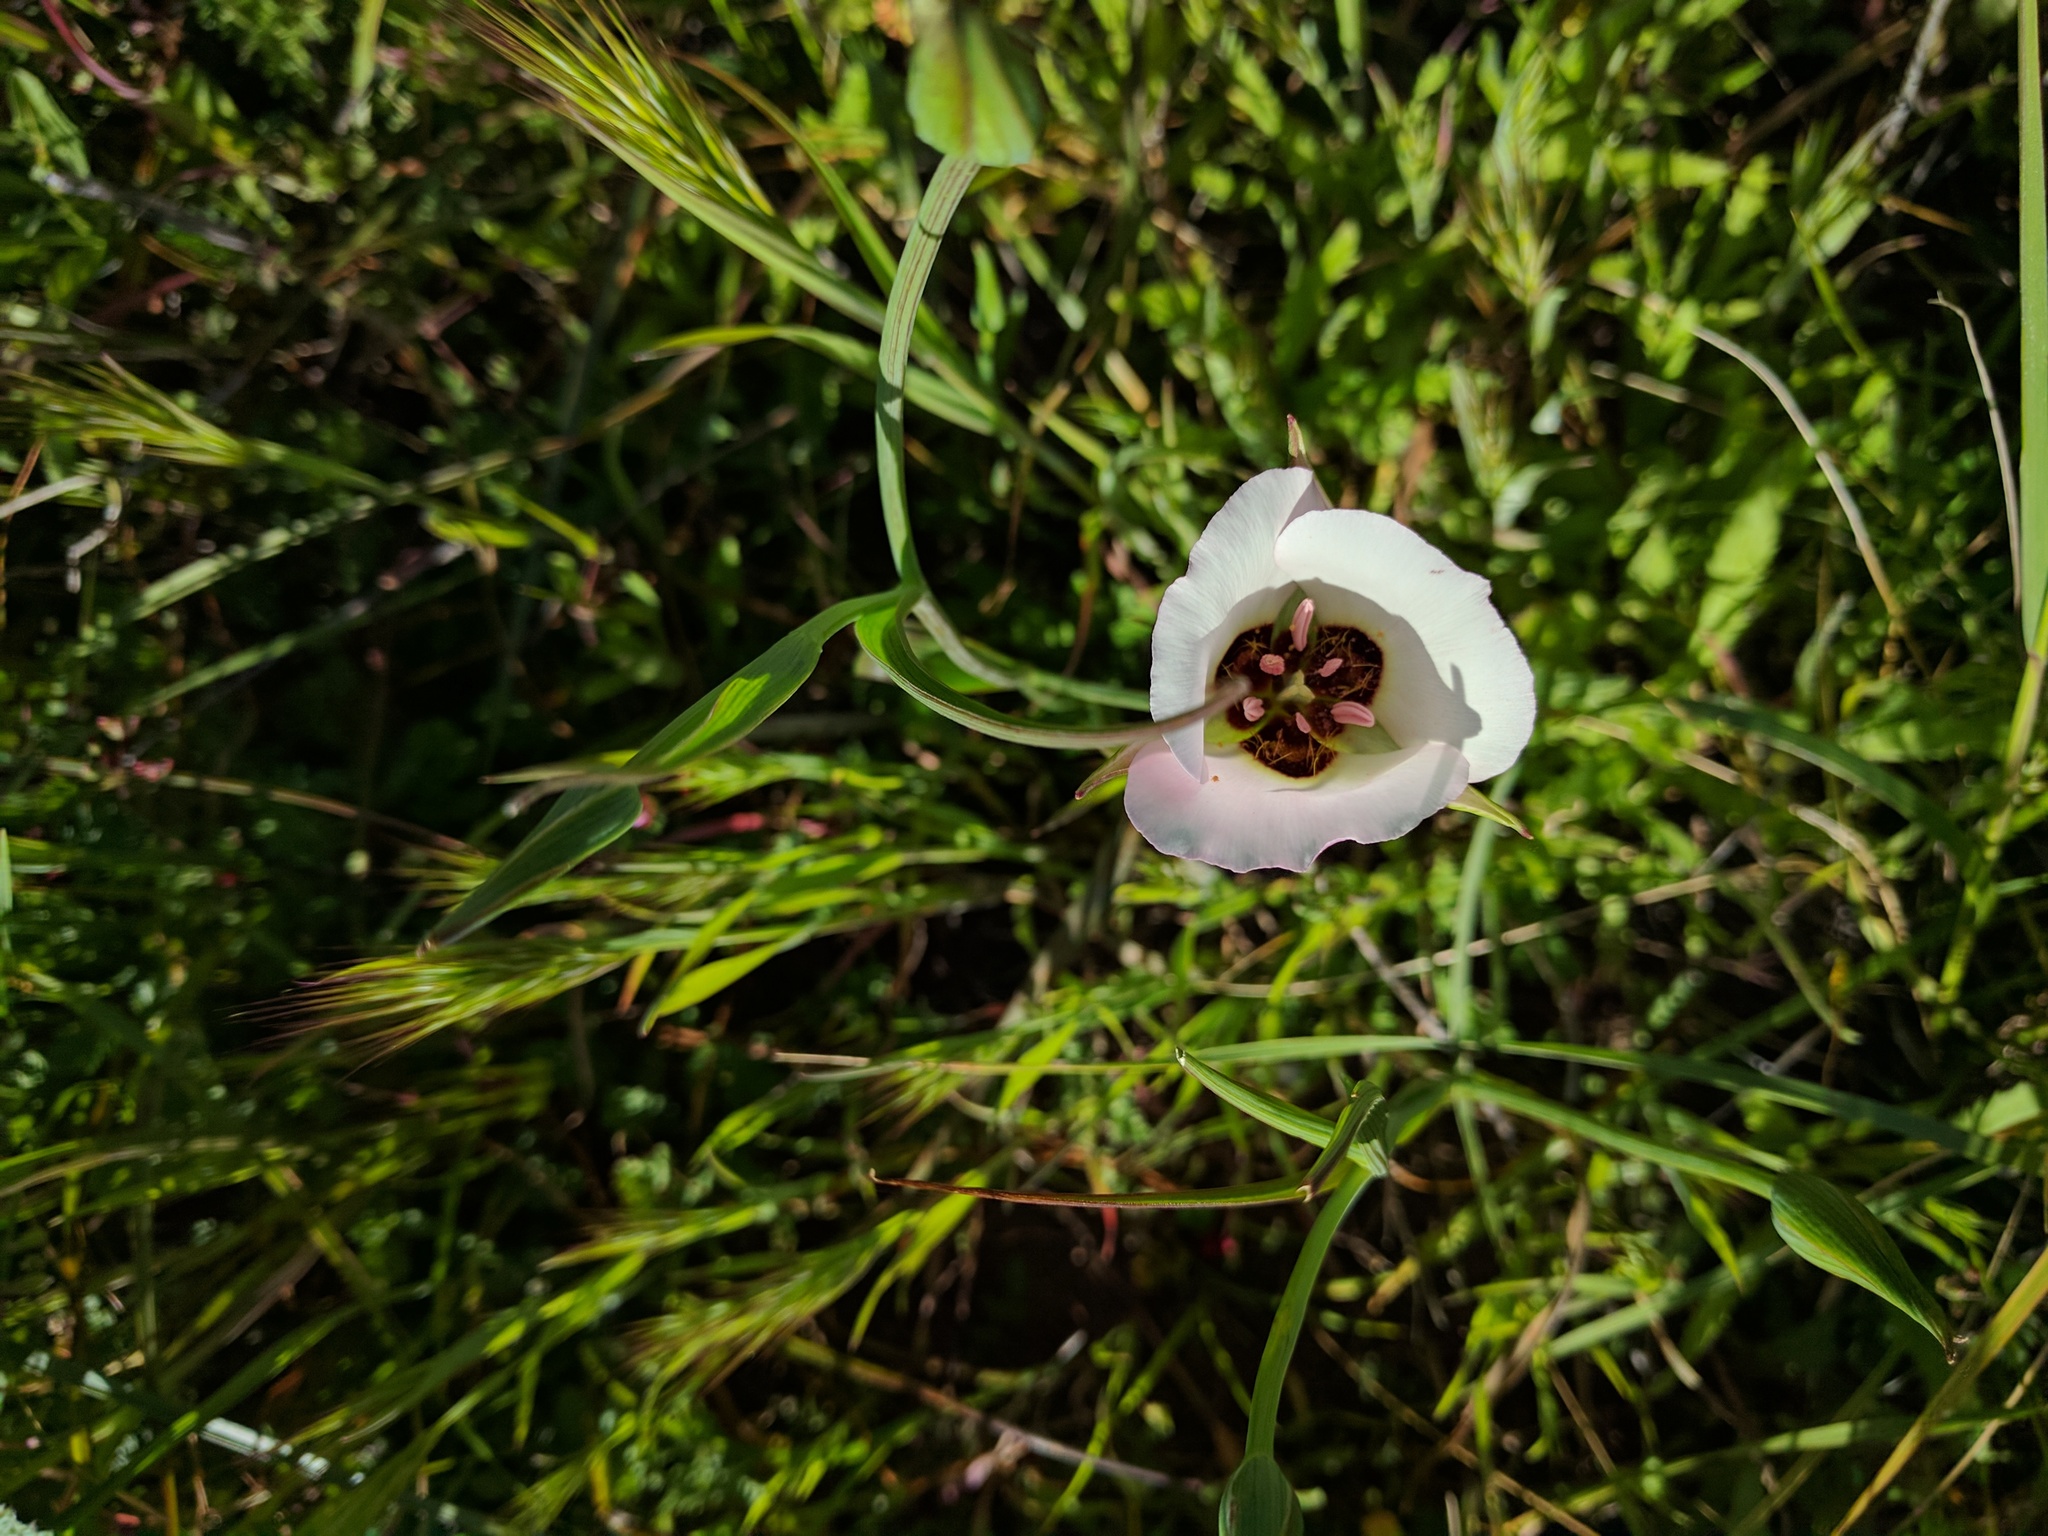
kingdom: Plantae
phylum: Tracheophyta
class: Liliopsida
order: Liliales
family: Liliaceae
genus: Calochortus
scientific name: Calochortus catalinae
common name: Catalina mariposa-lily
